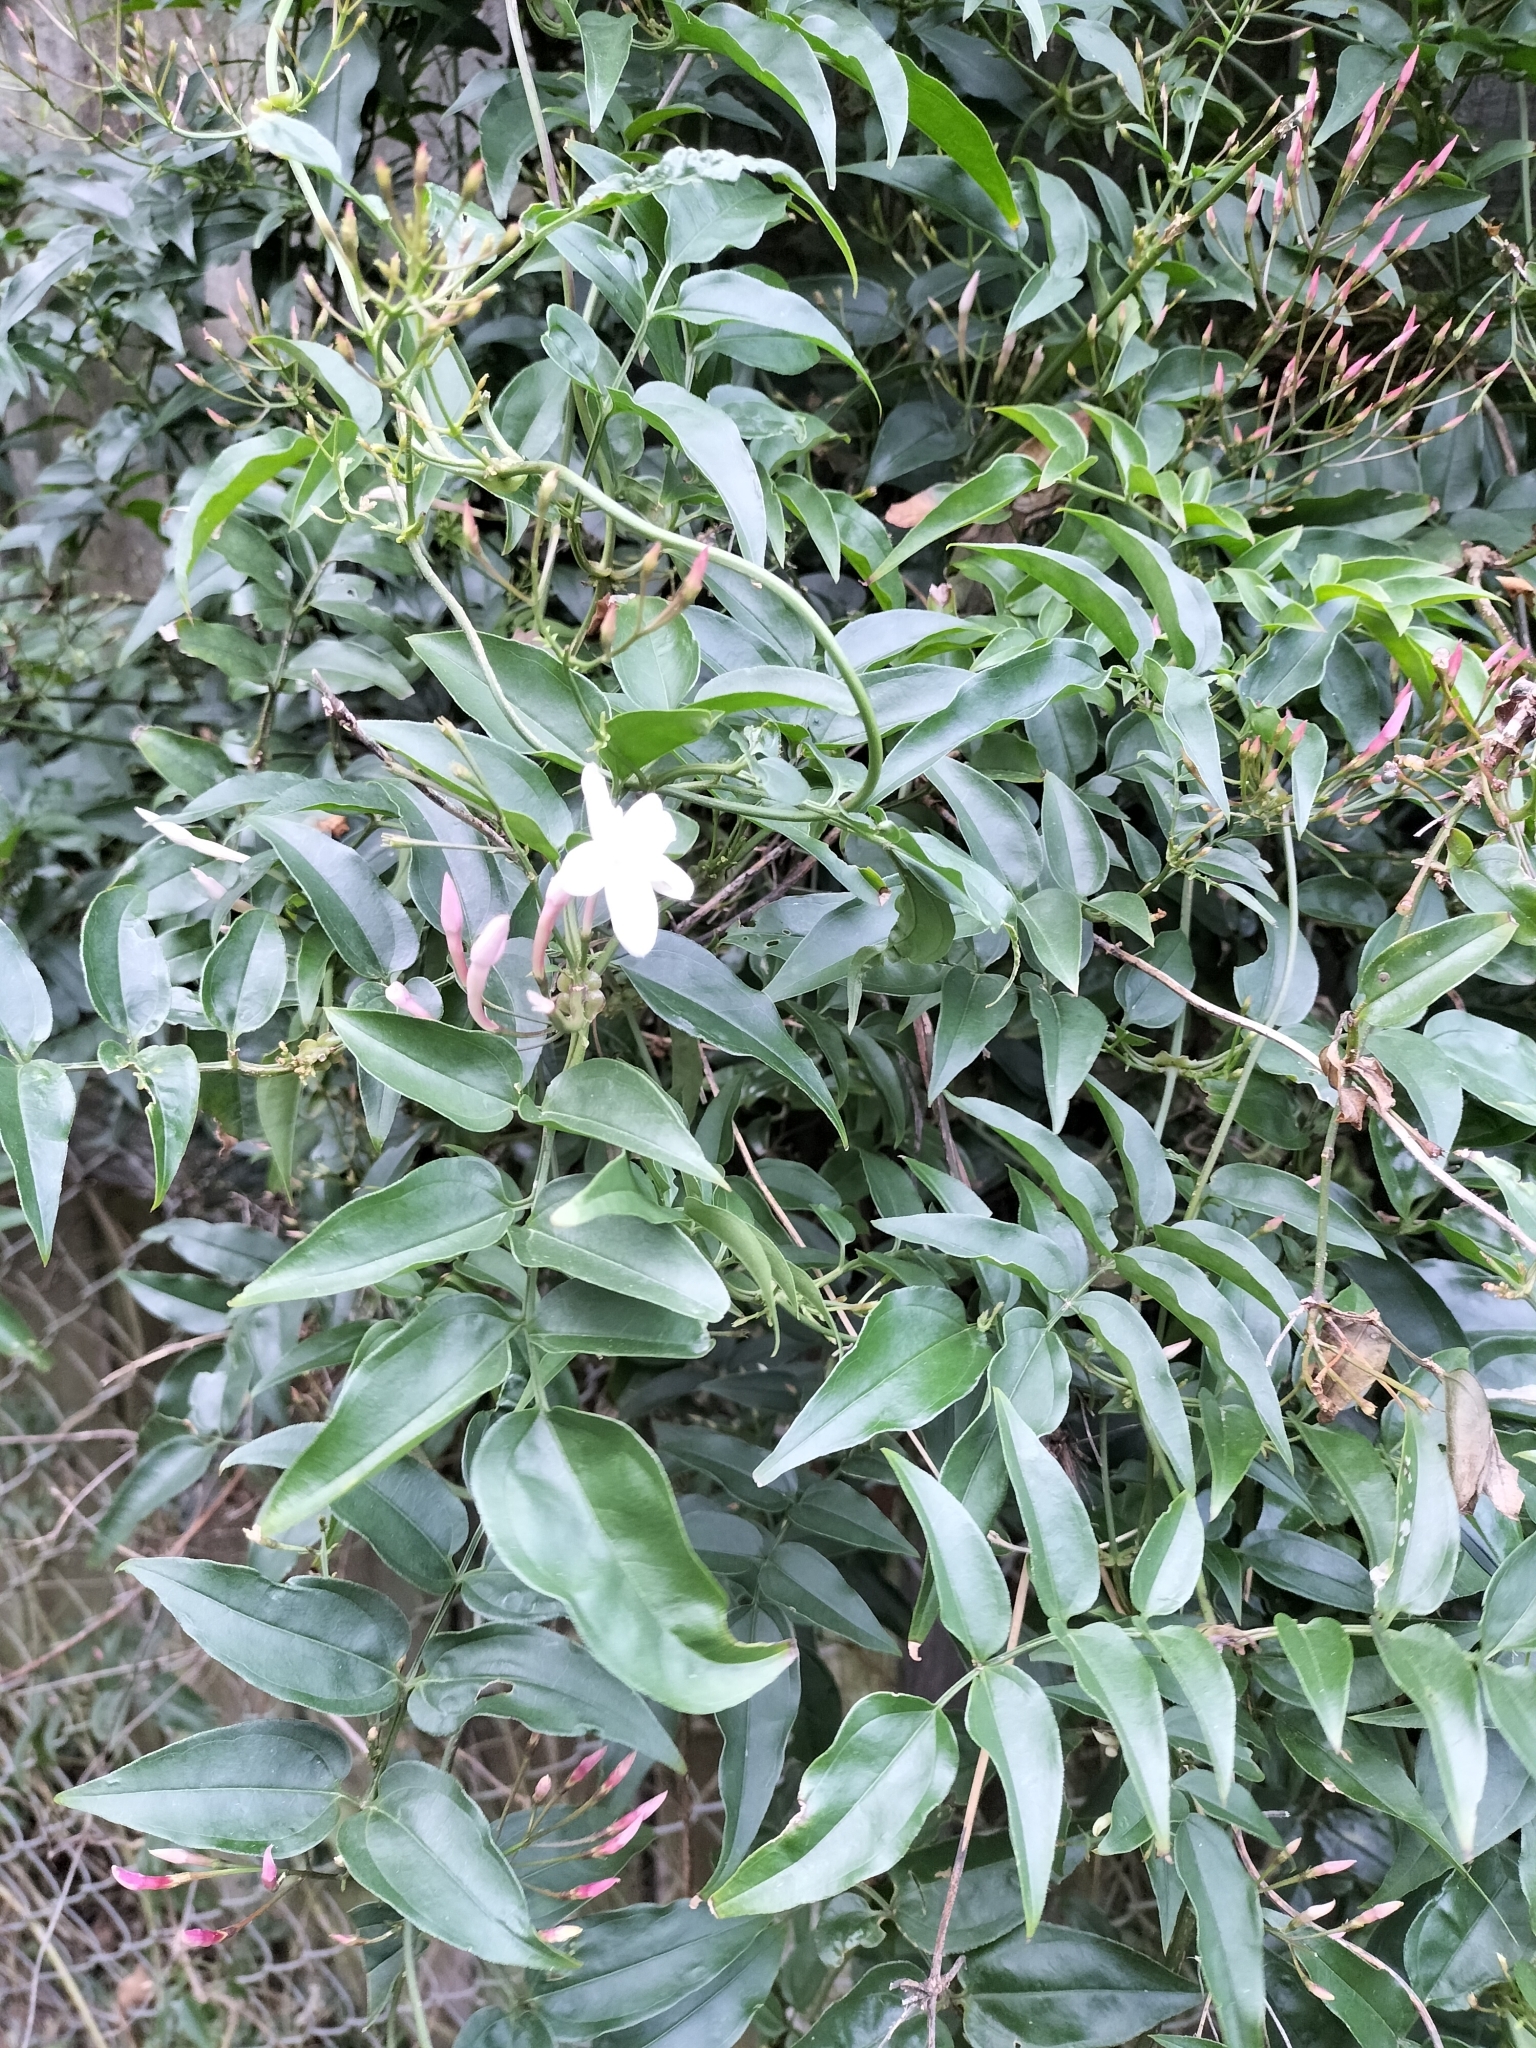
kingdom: Plantae
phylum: Tracheophyta
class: Magnoliopsida
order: Lamiales
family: Oleaceae
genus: Jasminum
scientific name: Jasminum polyanthum
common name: Pink jasmine
